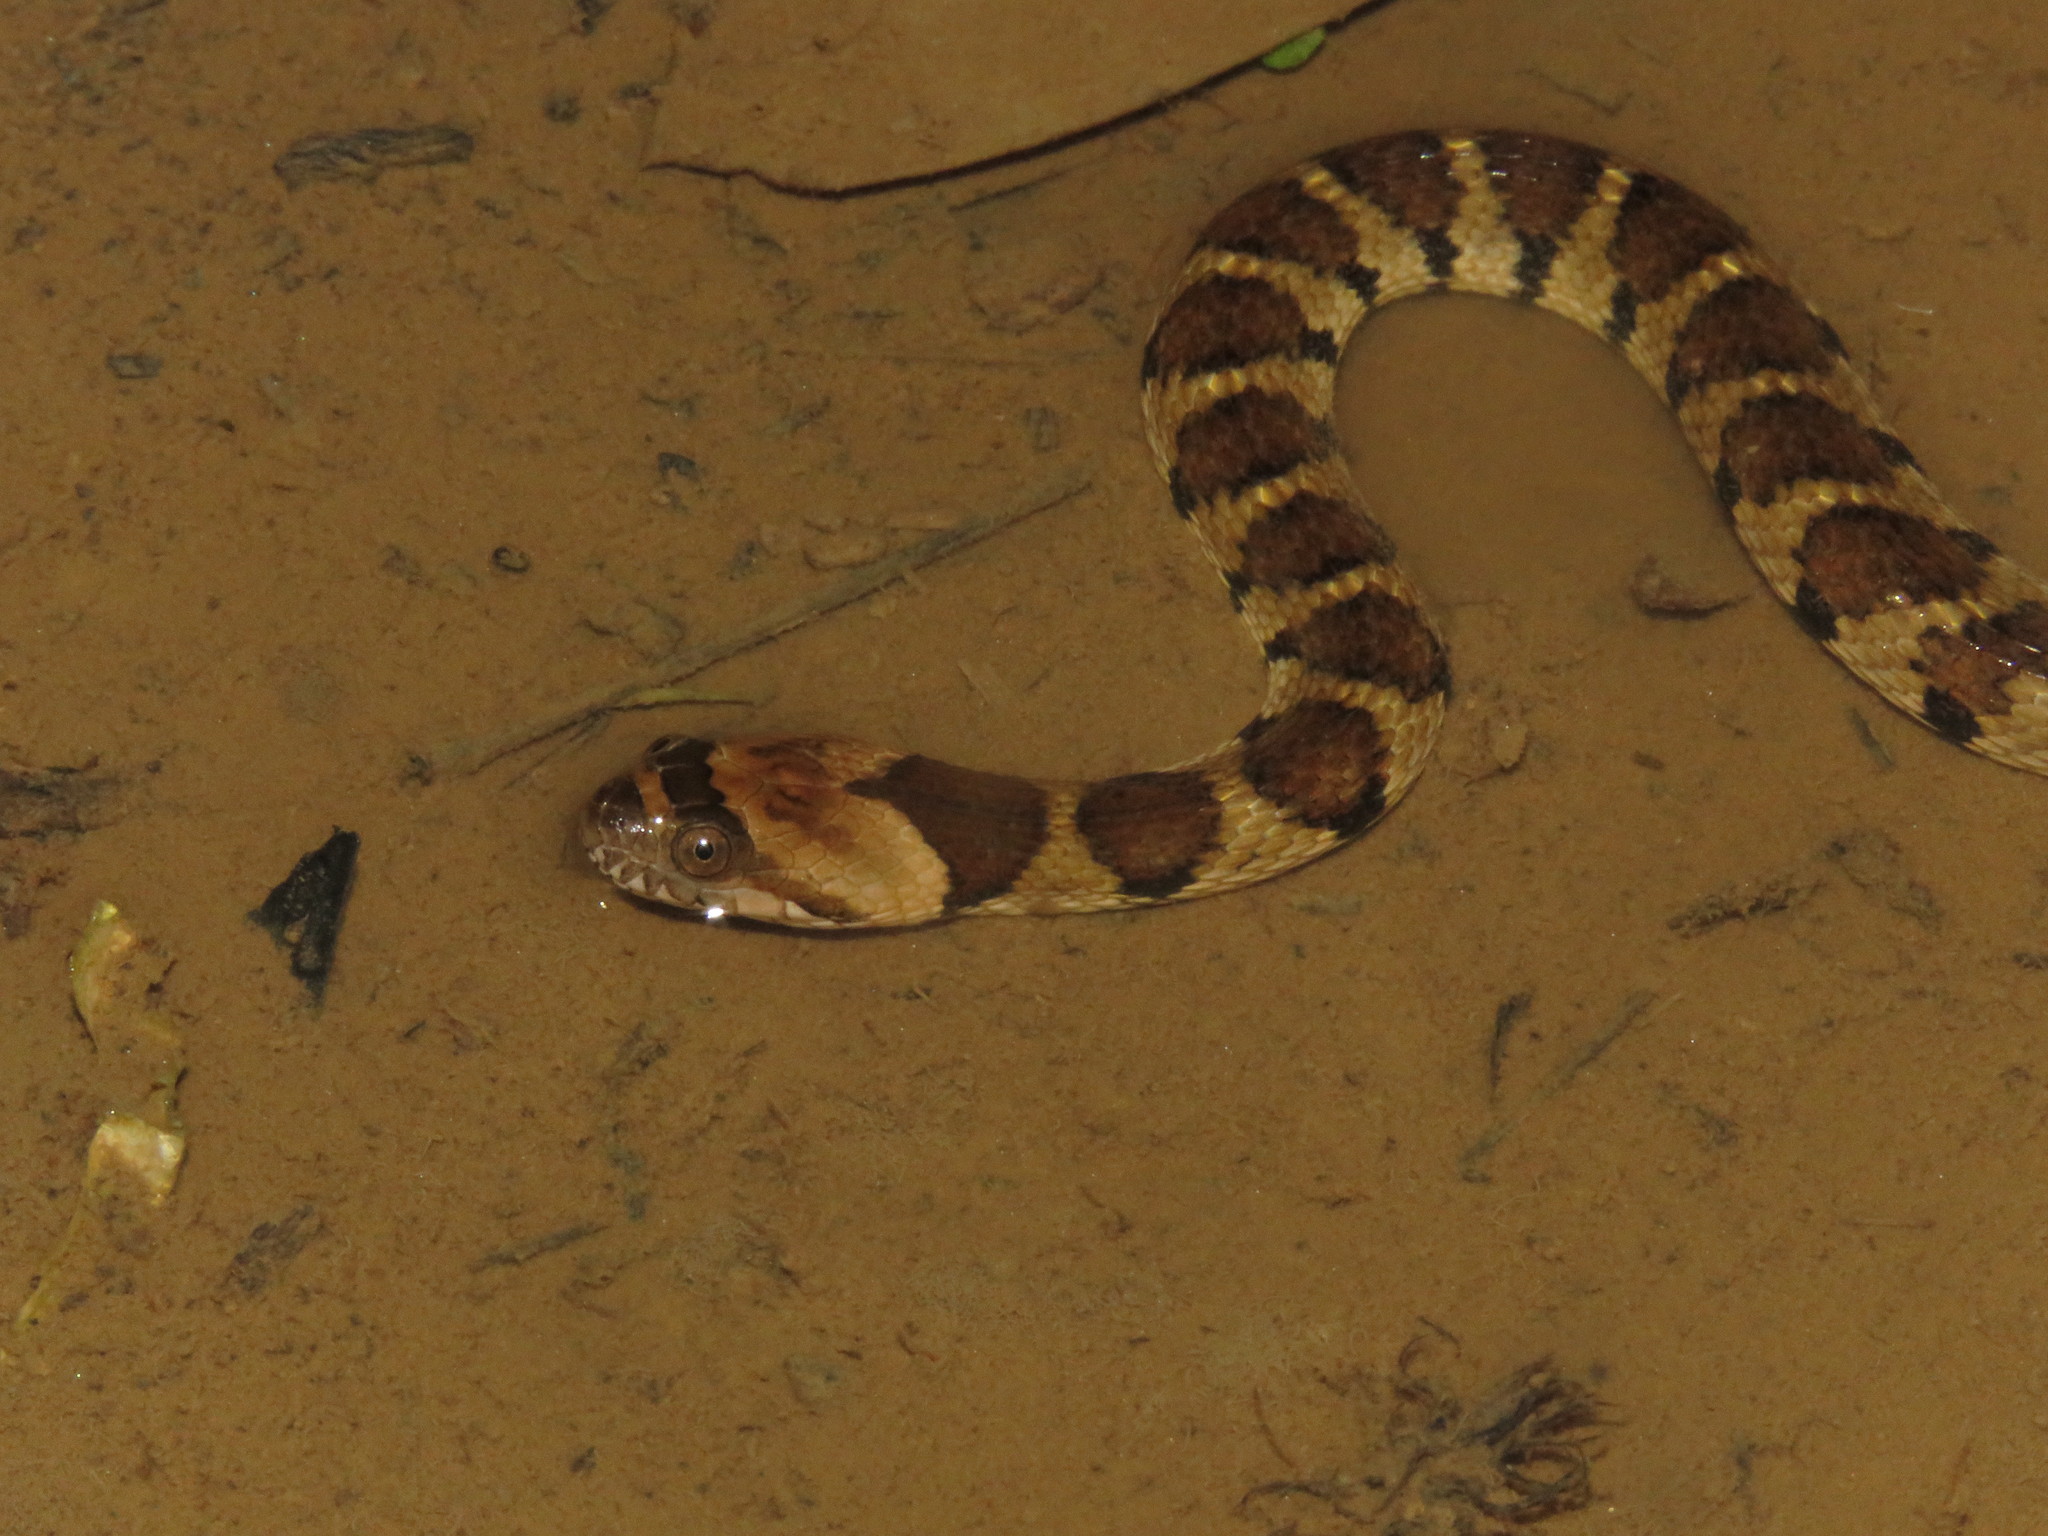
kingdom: Animalia
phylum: Chordata
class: Squamata
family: Colubridae
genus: Helicops
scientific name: Helicops angulatus
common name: Mountain keelback
